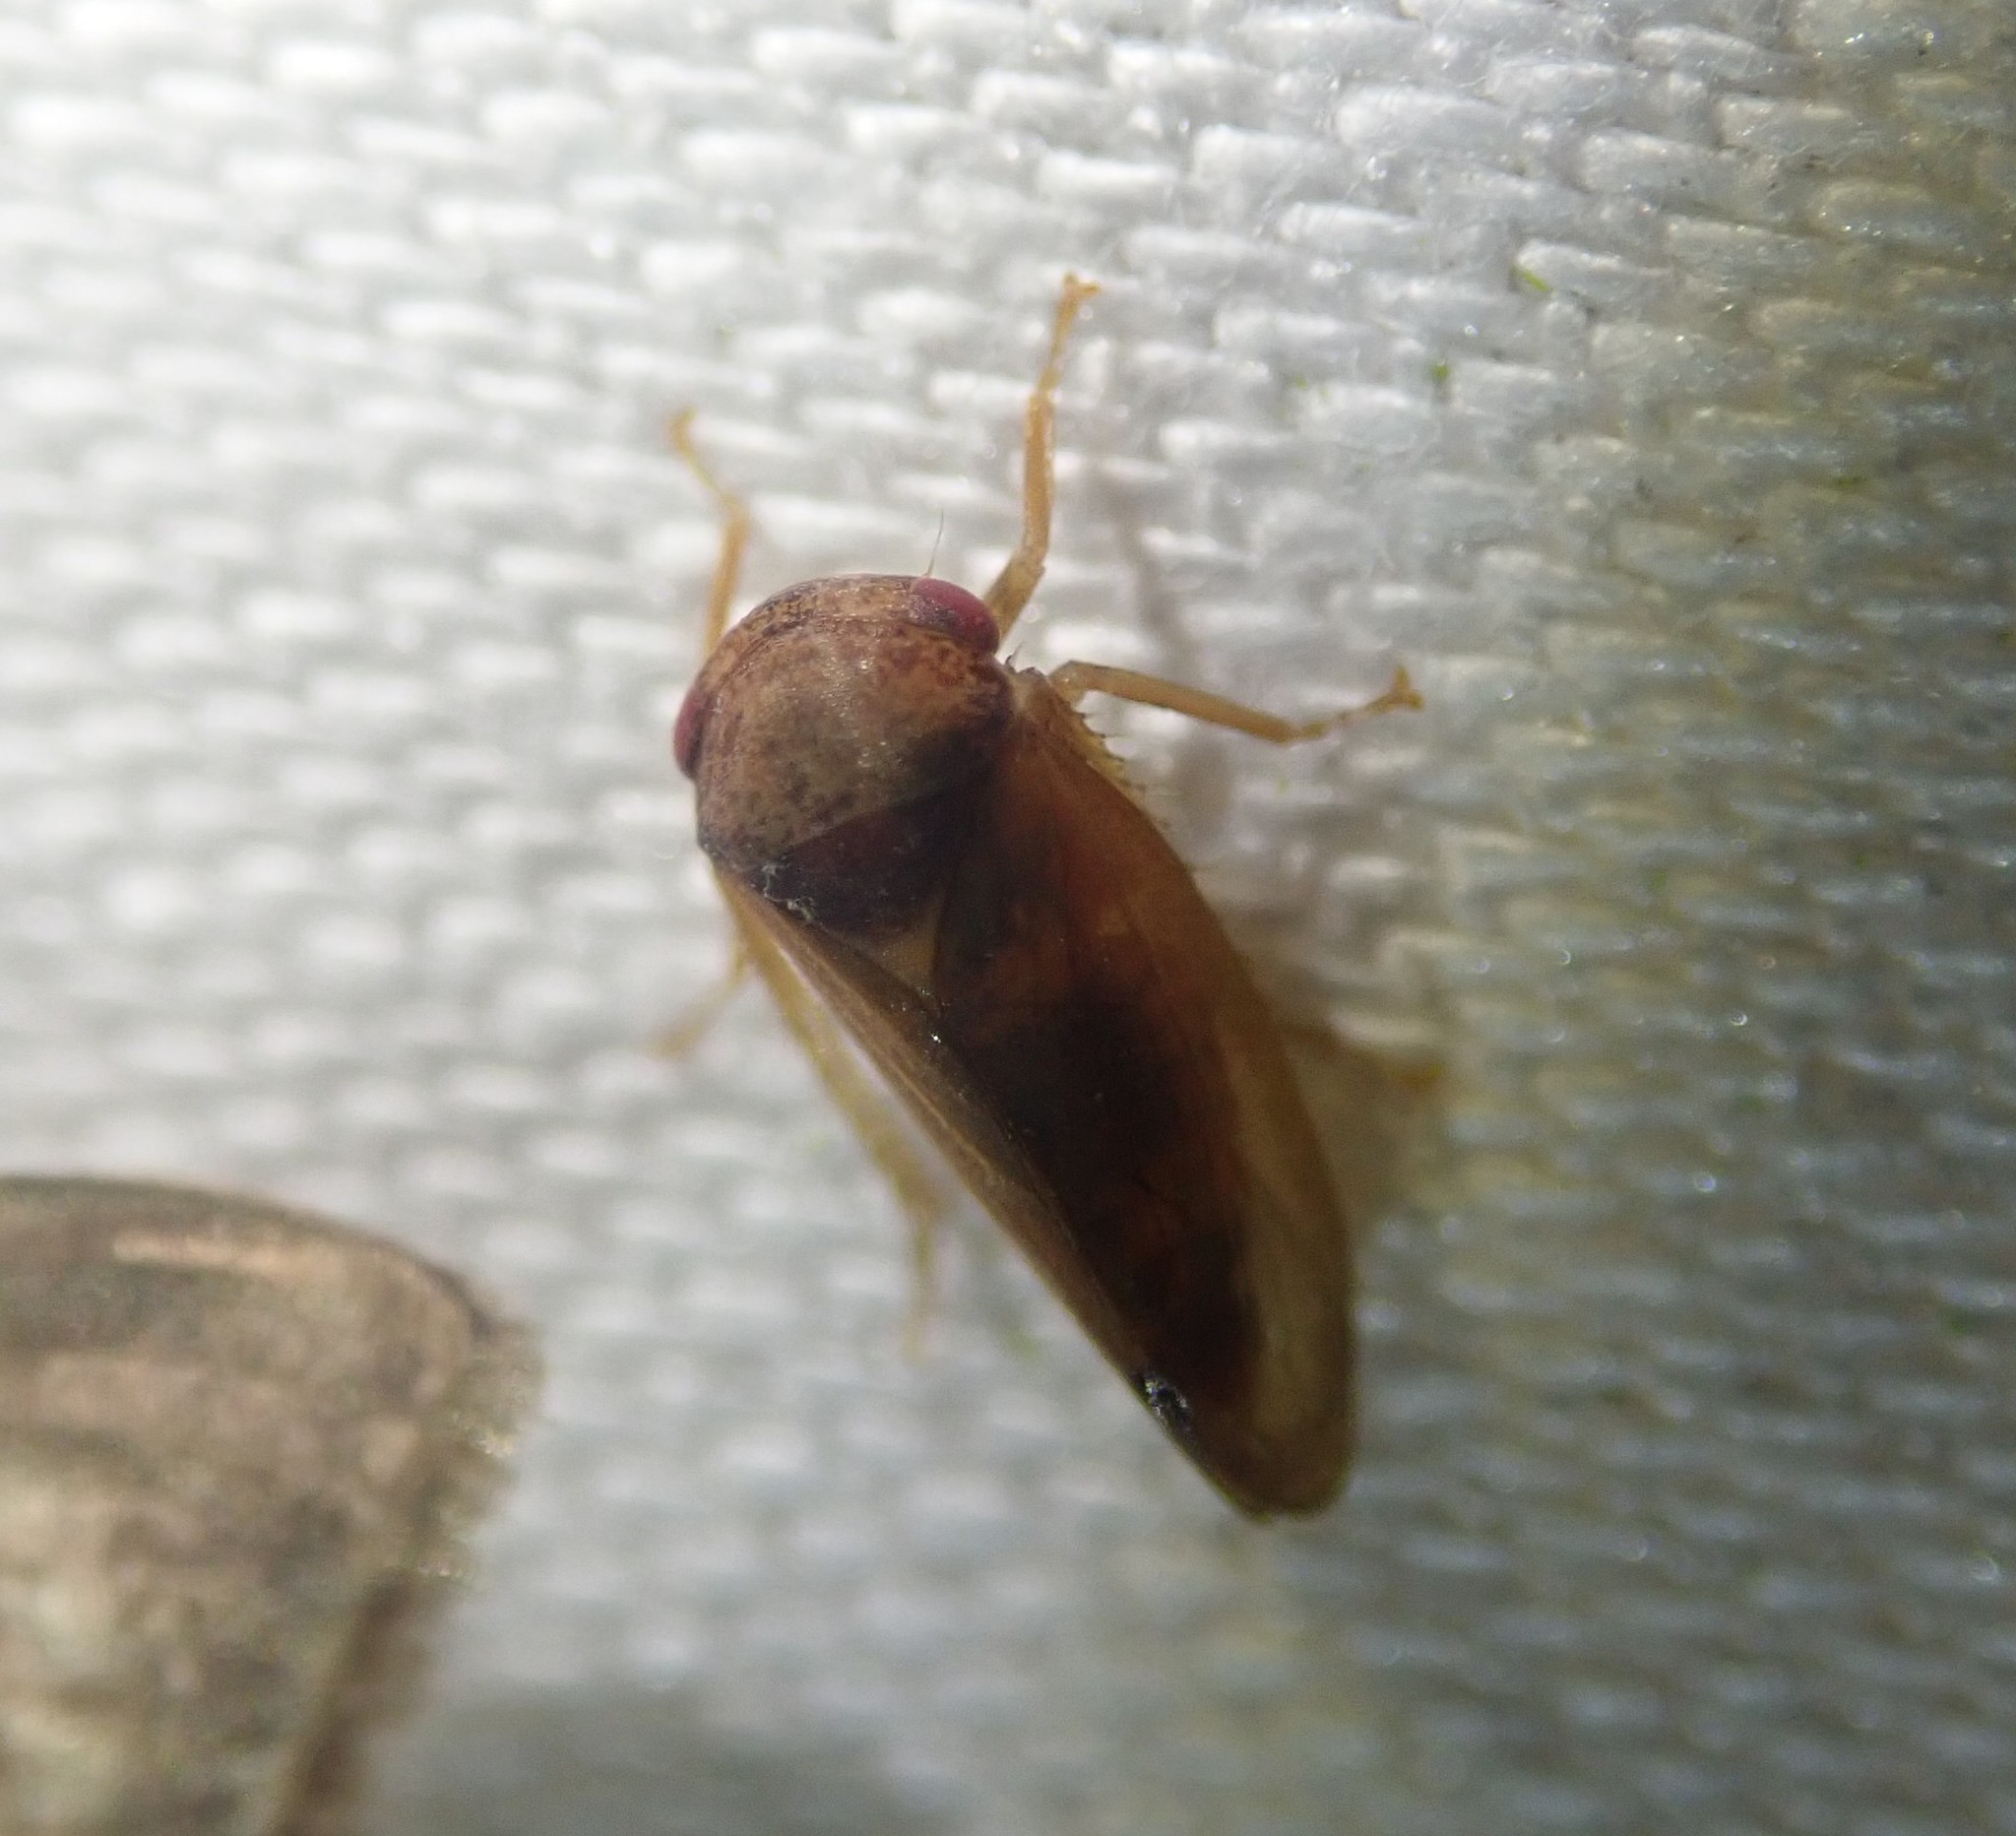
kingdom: Animalia
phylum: Arthropoda
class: Insecta
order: Hemiptera
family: Cicadellidae
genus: Iassus
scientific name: Iassus lanio
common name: Leafhopper
